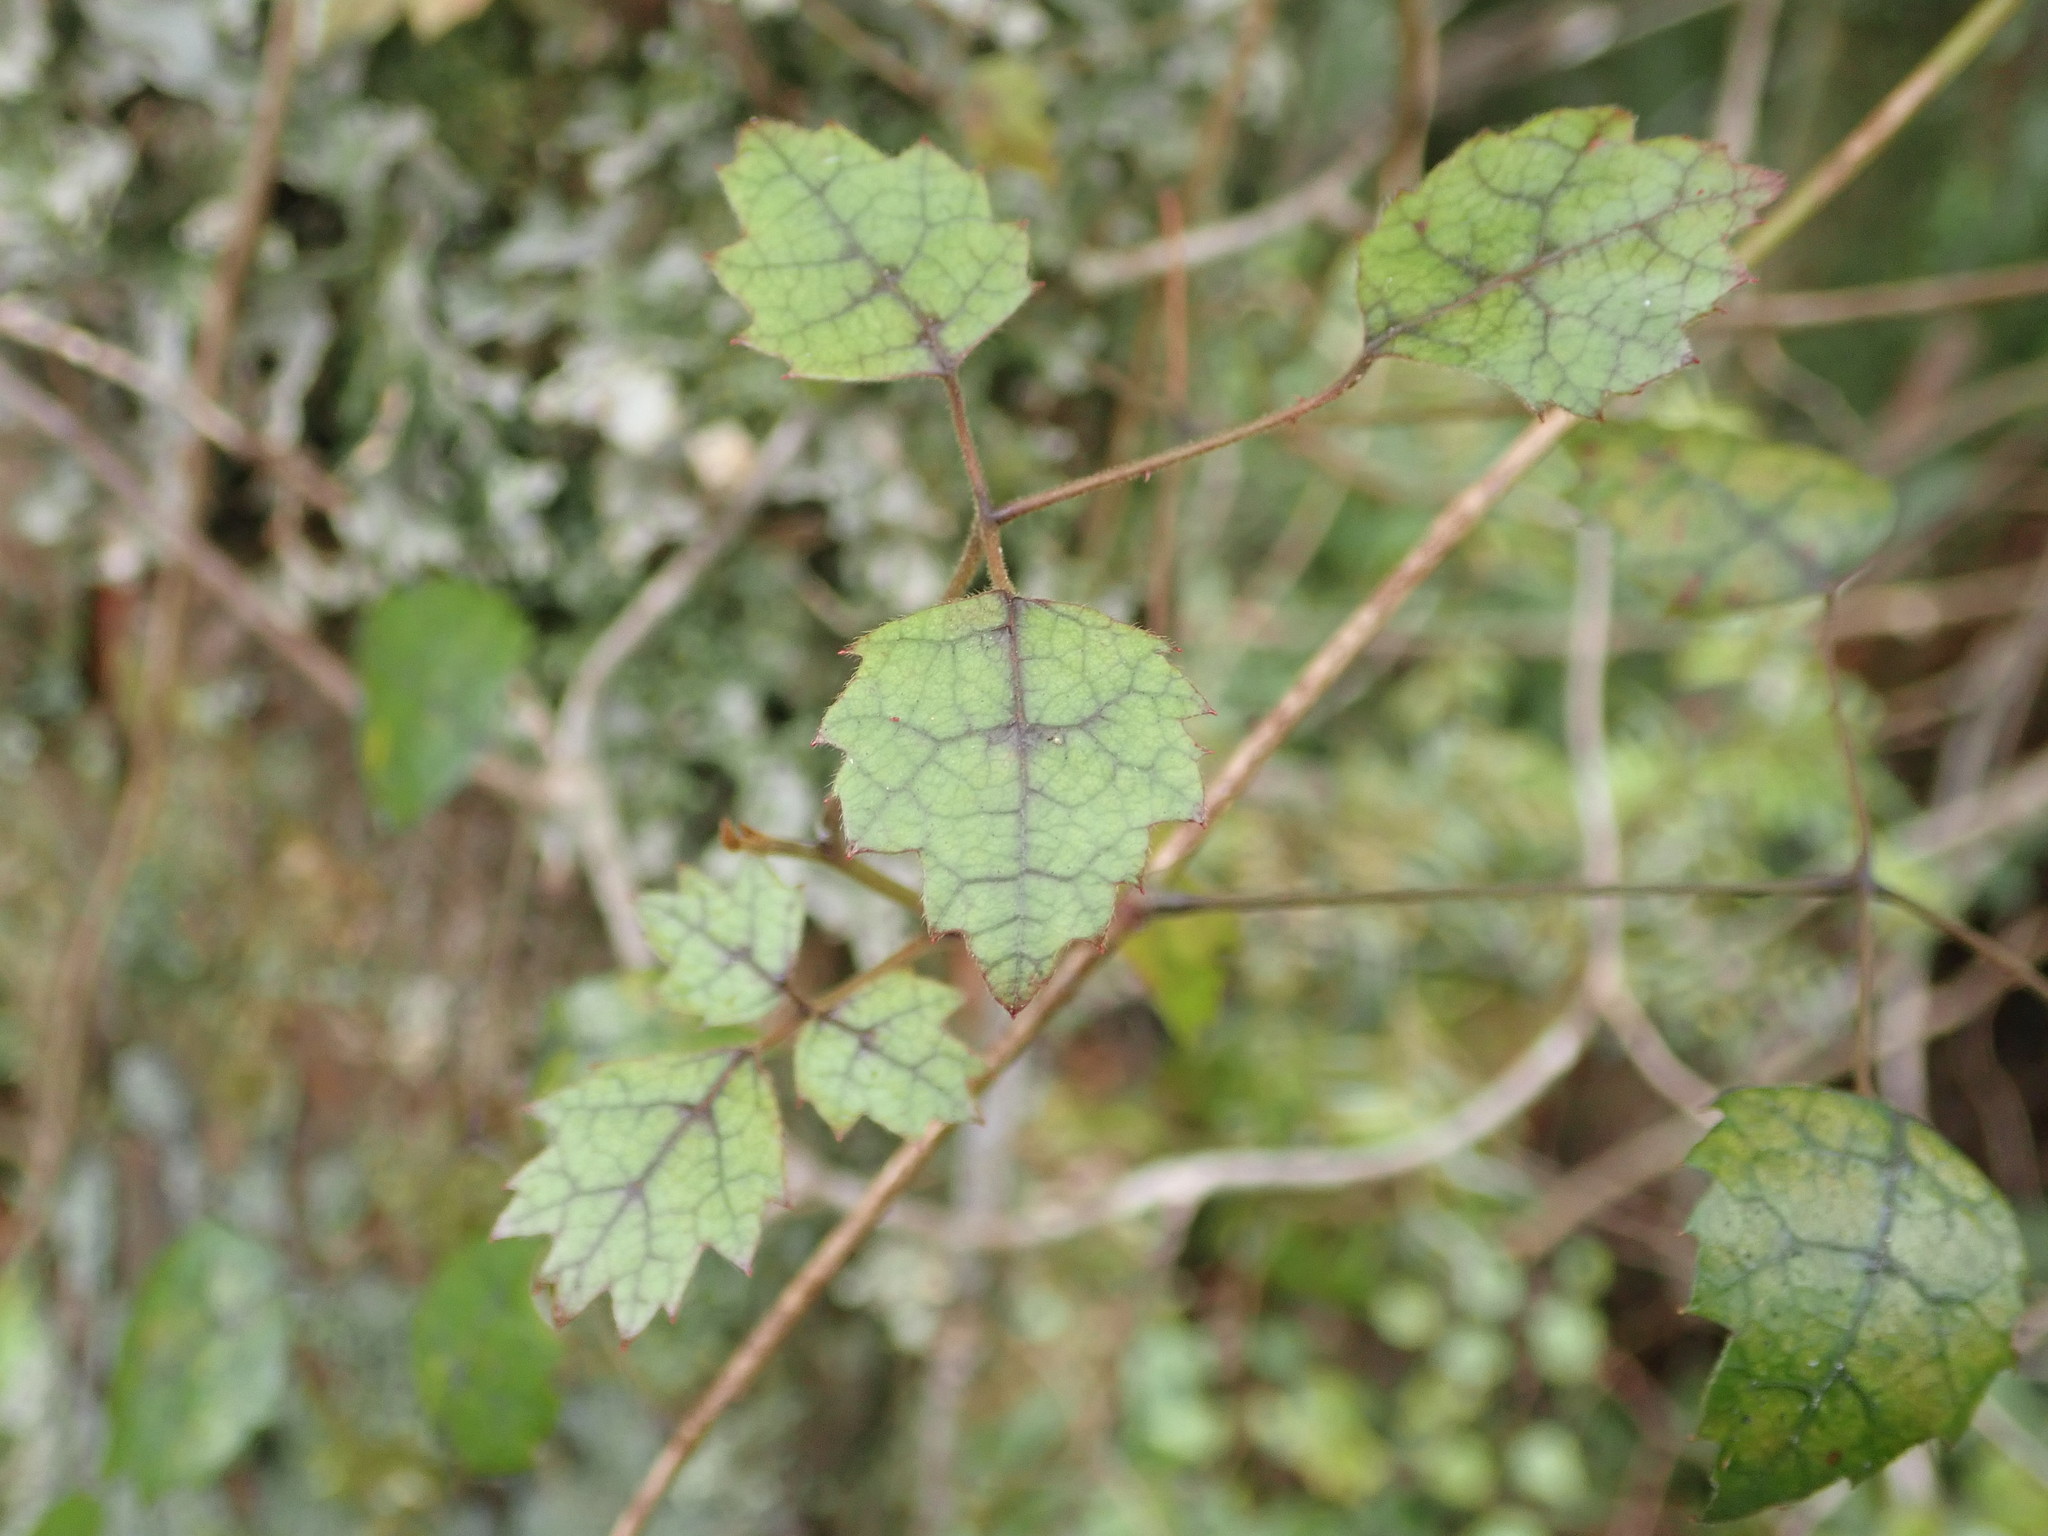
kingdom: Plantae
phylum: Tracheophyta
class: Magnoliopsida
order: Rosales
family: Rosaceae
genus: Rubus
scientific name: Rubus australis
